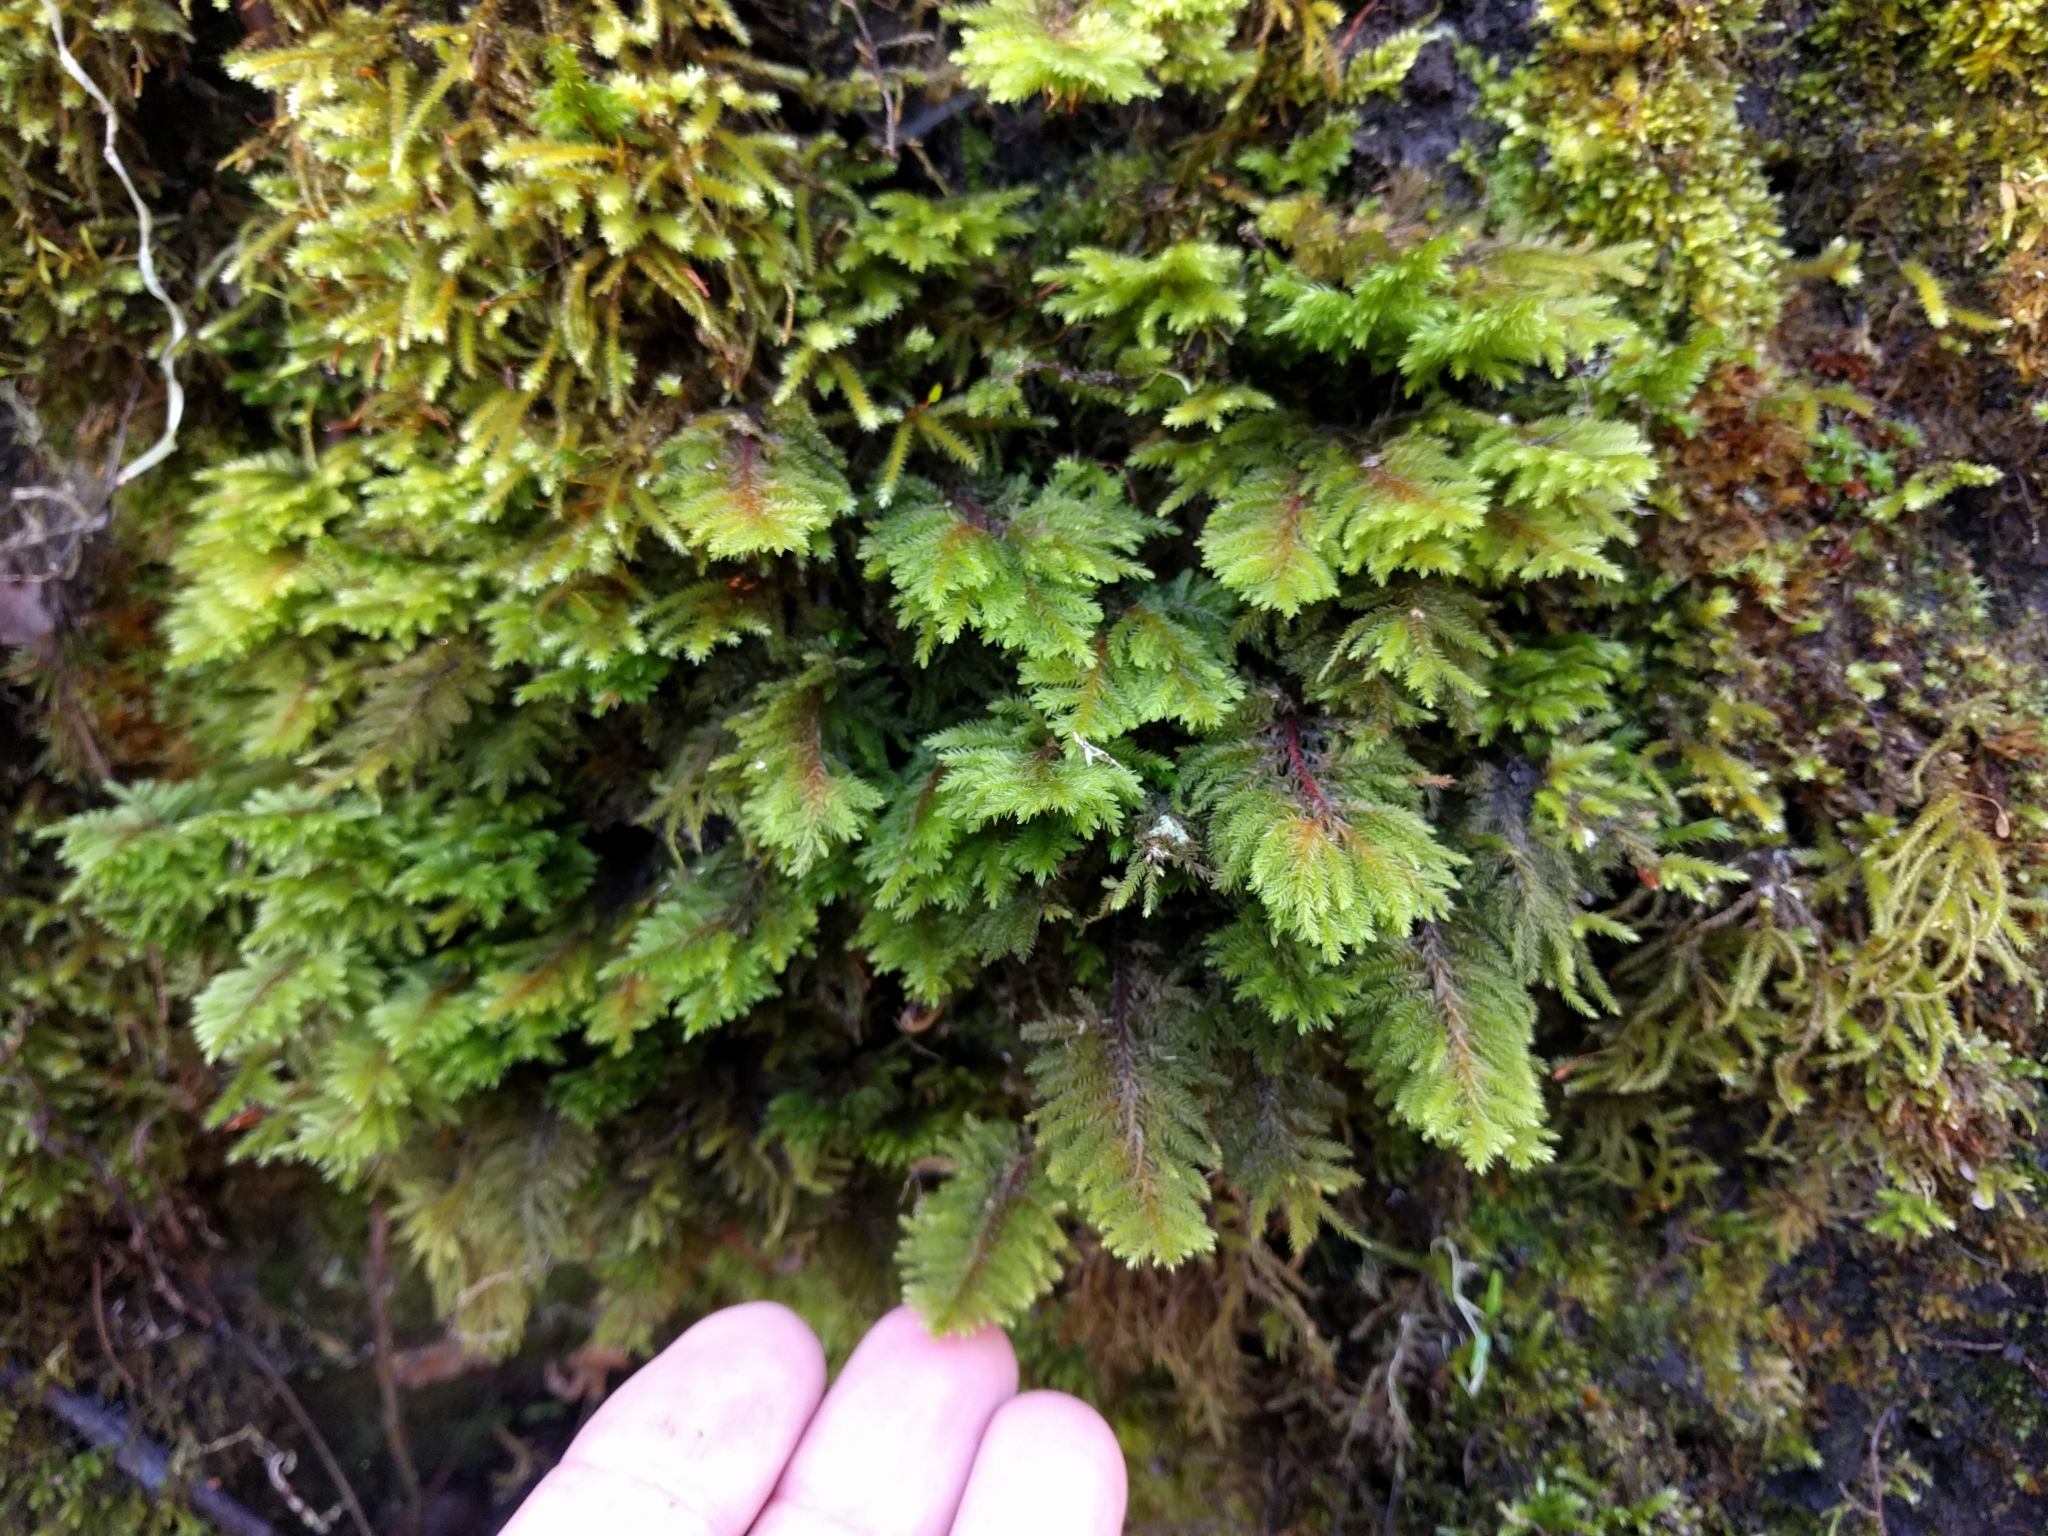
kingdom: Plantae
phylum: Bryophyta
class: Bryopsida
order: Hypnales
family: Cryphaeaceae
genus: Dendroalsia
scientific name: Dendroalsia abietina
